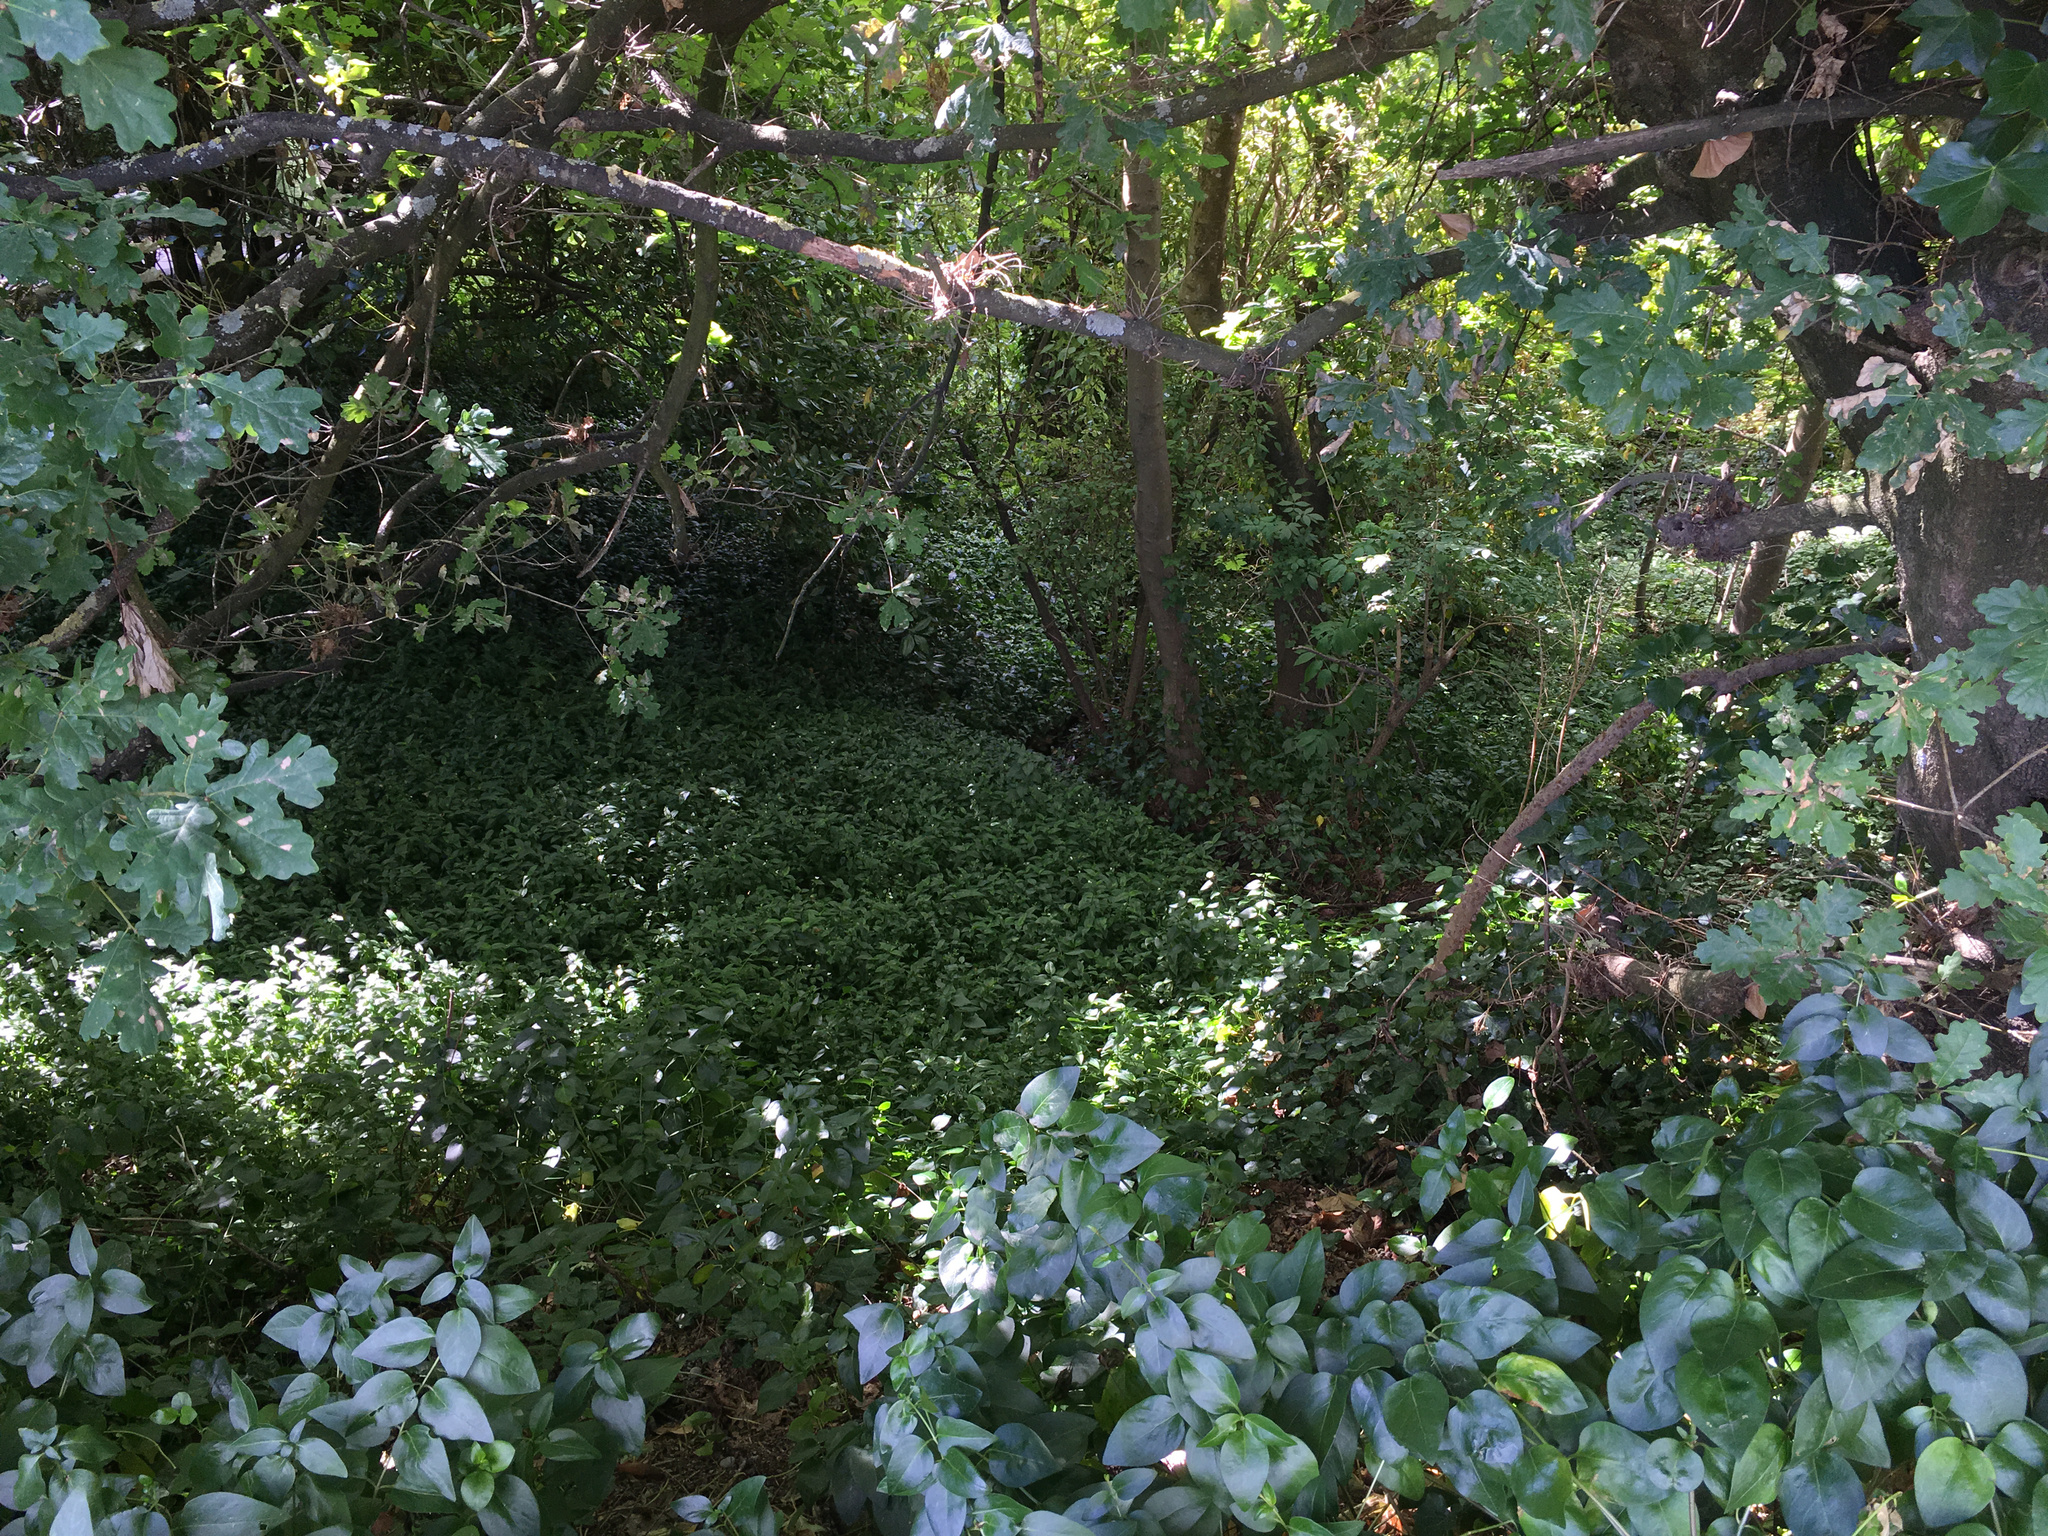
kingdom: Plantae
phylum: Tracheophyta
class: Liliopsida
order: Commelinales
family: Commelinaceae
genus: Tradescantia
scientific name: Tradescantia fluminensis
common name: Wandering-jew
